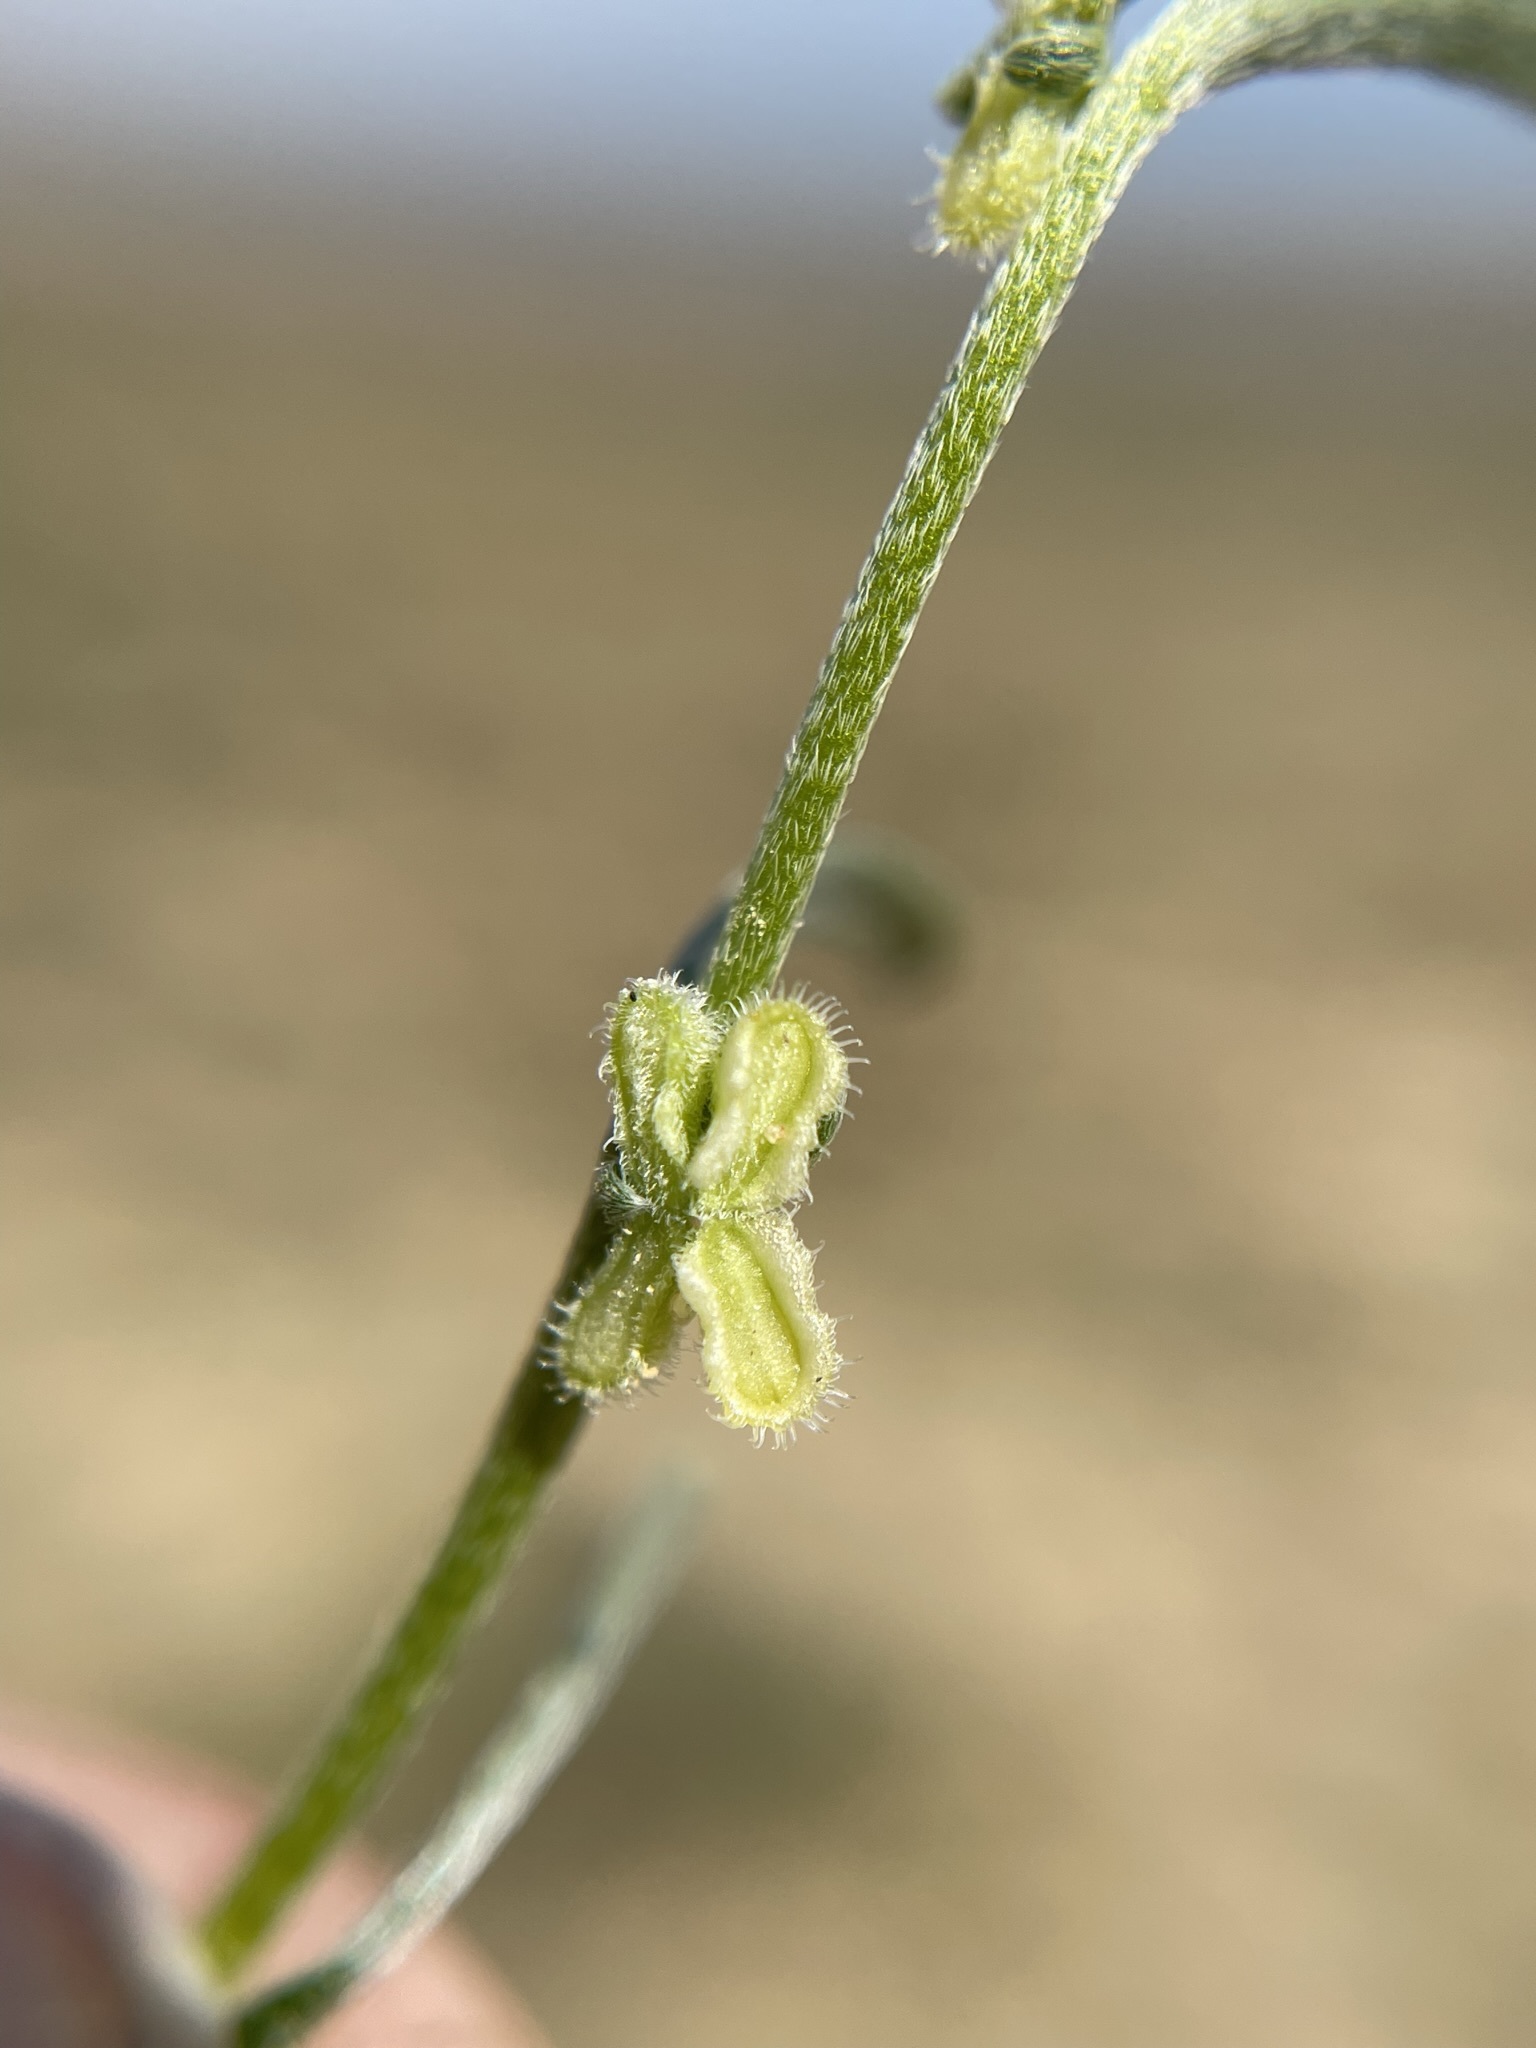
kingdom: Plantae
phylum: Tracheophyta
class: Magnoliopsida
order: Boraginales
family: Boraginaceae
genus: Pectocarya
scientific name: Pectocarya anisocarpa
